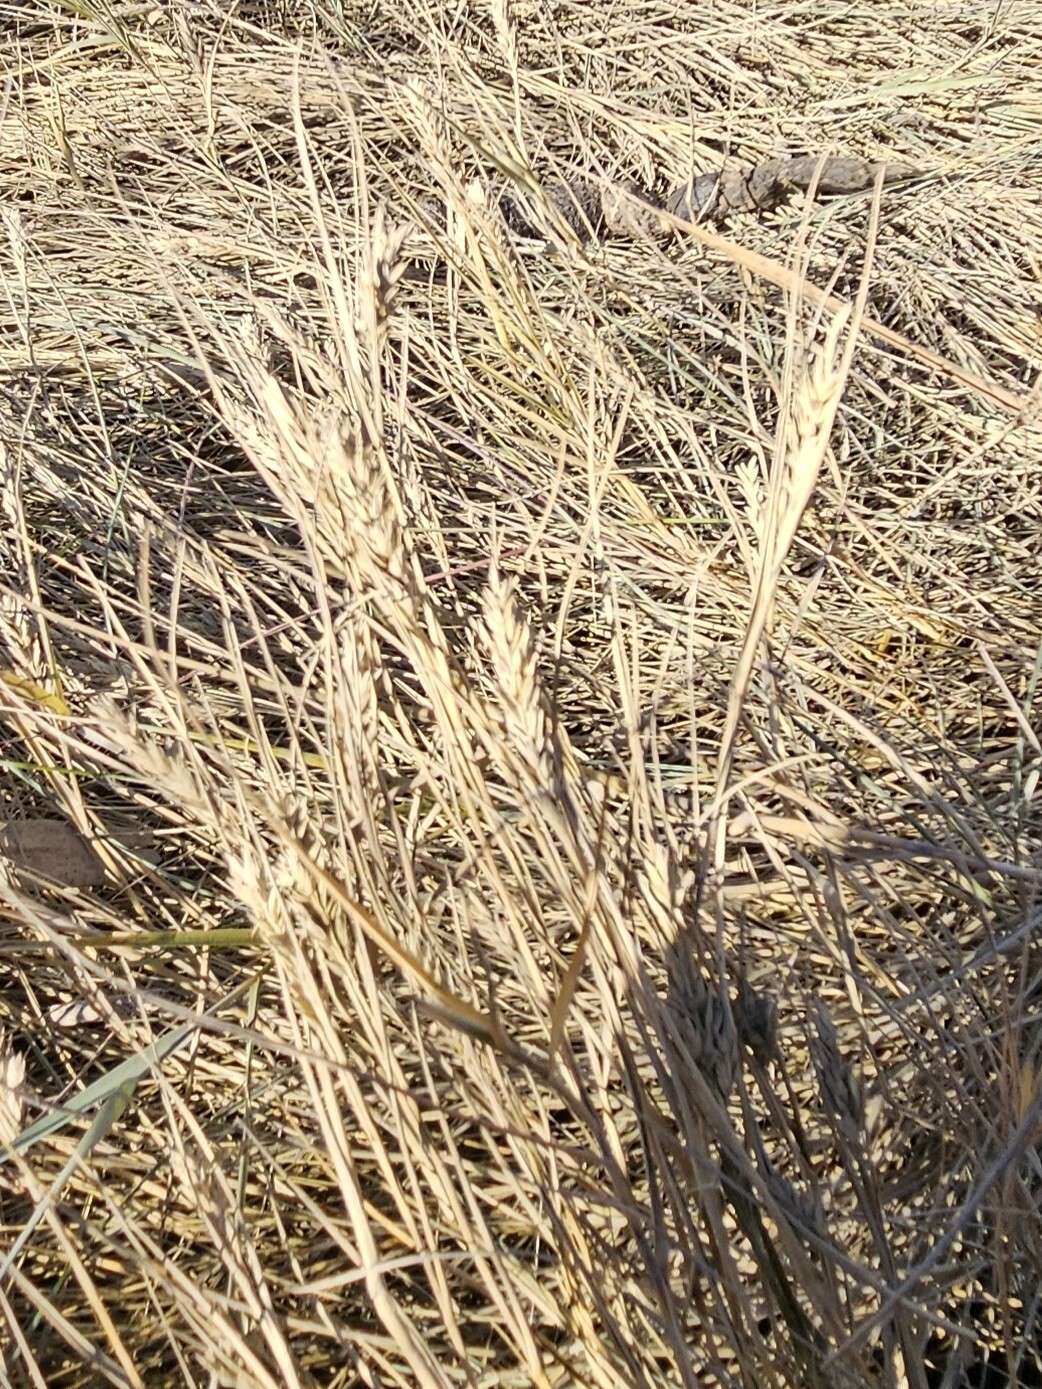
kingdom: Plantae
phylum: Tracheophyta
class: Liliopsida
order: Poales
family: Poaceae
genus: Distichlis
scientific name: Distichlis spicata
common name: Saltgrass
